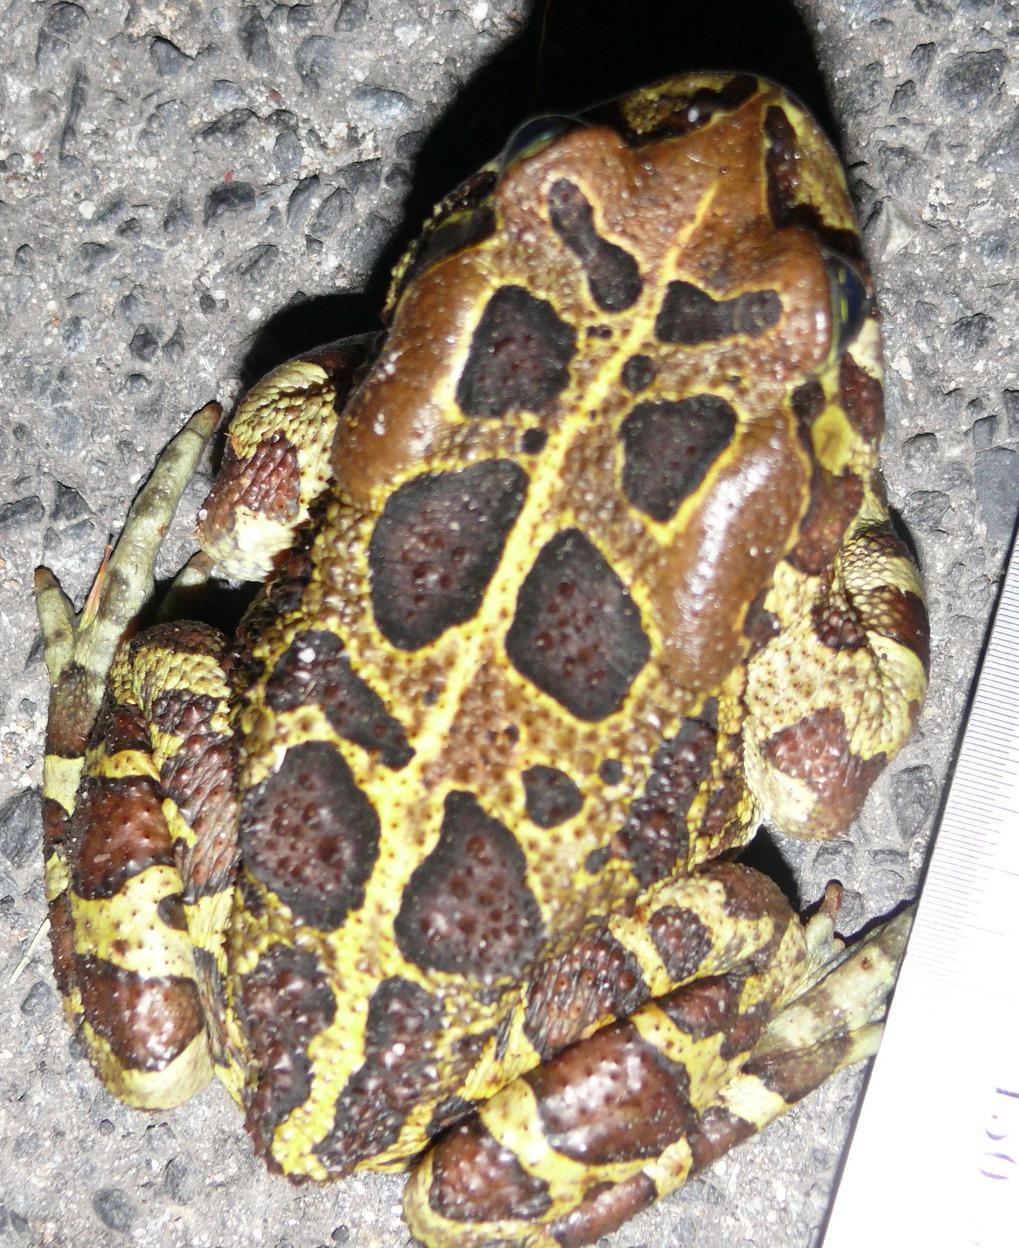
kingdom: Animalia
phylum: Chordata
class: Amphibia
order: Anura
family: Bufonidae
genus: Sclerophrys
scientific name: Sclerophrys pantherina
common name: Panther toad
